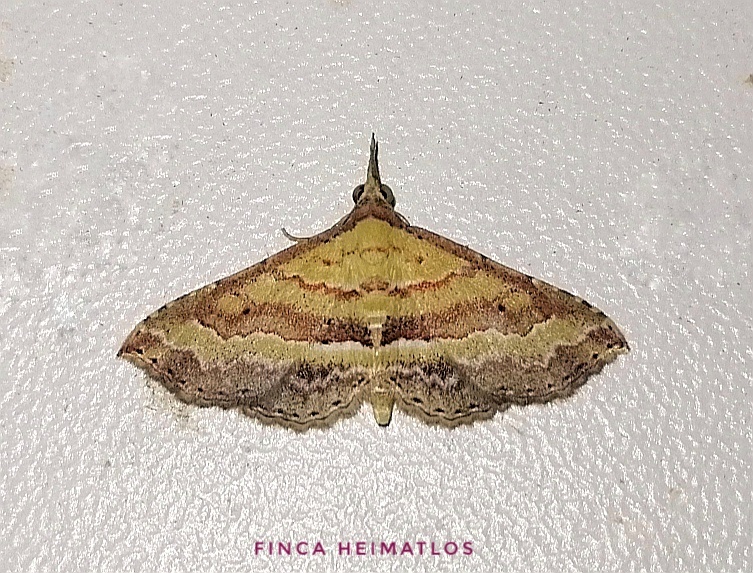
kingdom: Animalia
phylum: Arthropoda
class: Insecta
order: Lepidoptera
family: Erebidae
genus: Mursa
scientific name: Mursa phtisialis
